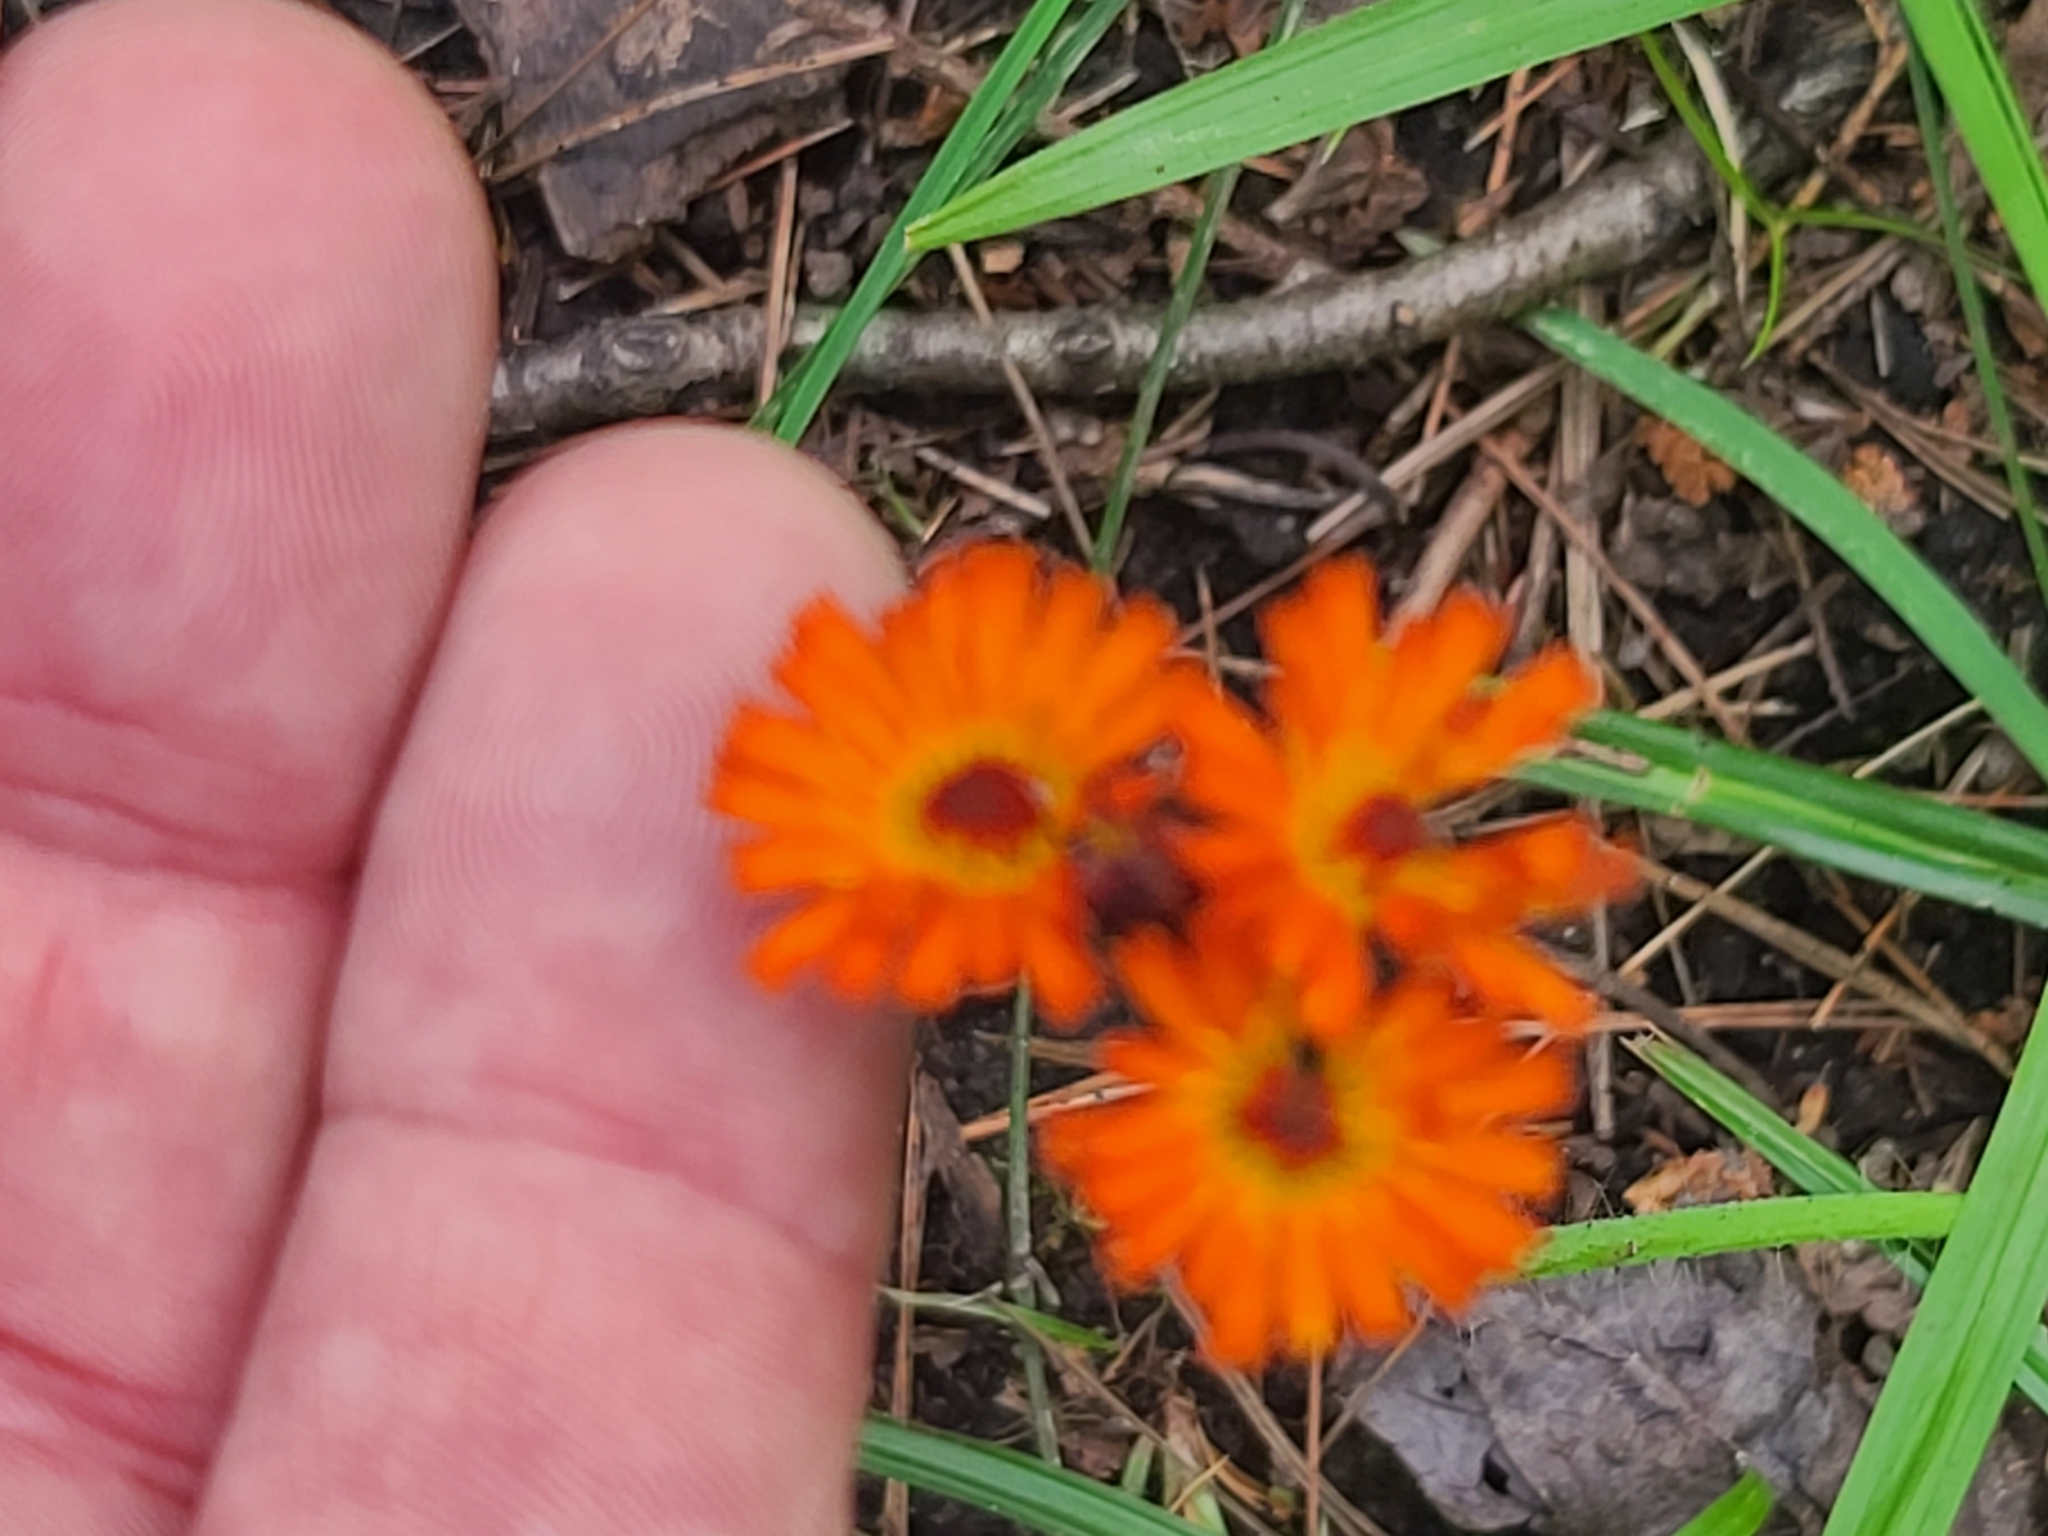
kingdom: Plantae
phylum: Tracheophyta
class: Magnoliopsida
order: Asterales
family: Asteraceae
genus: Pilosella
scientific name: Pilosella aurantiaca
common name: Fox-and-cubs
